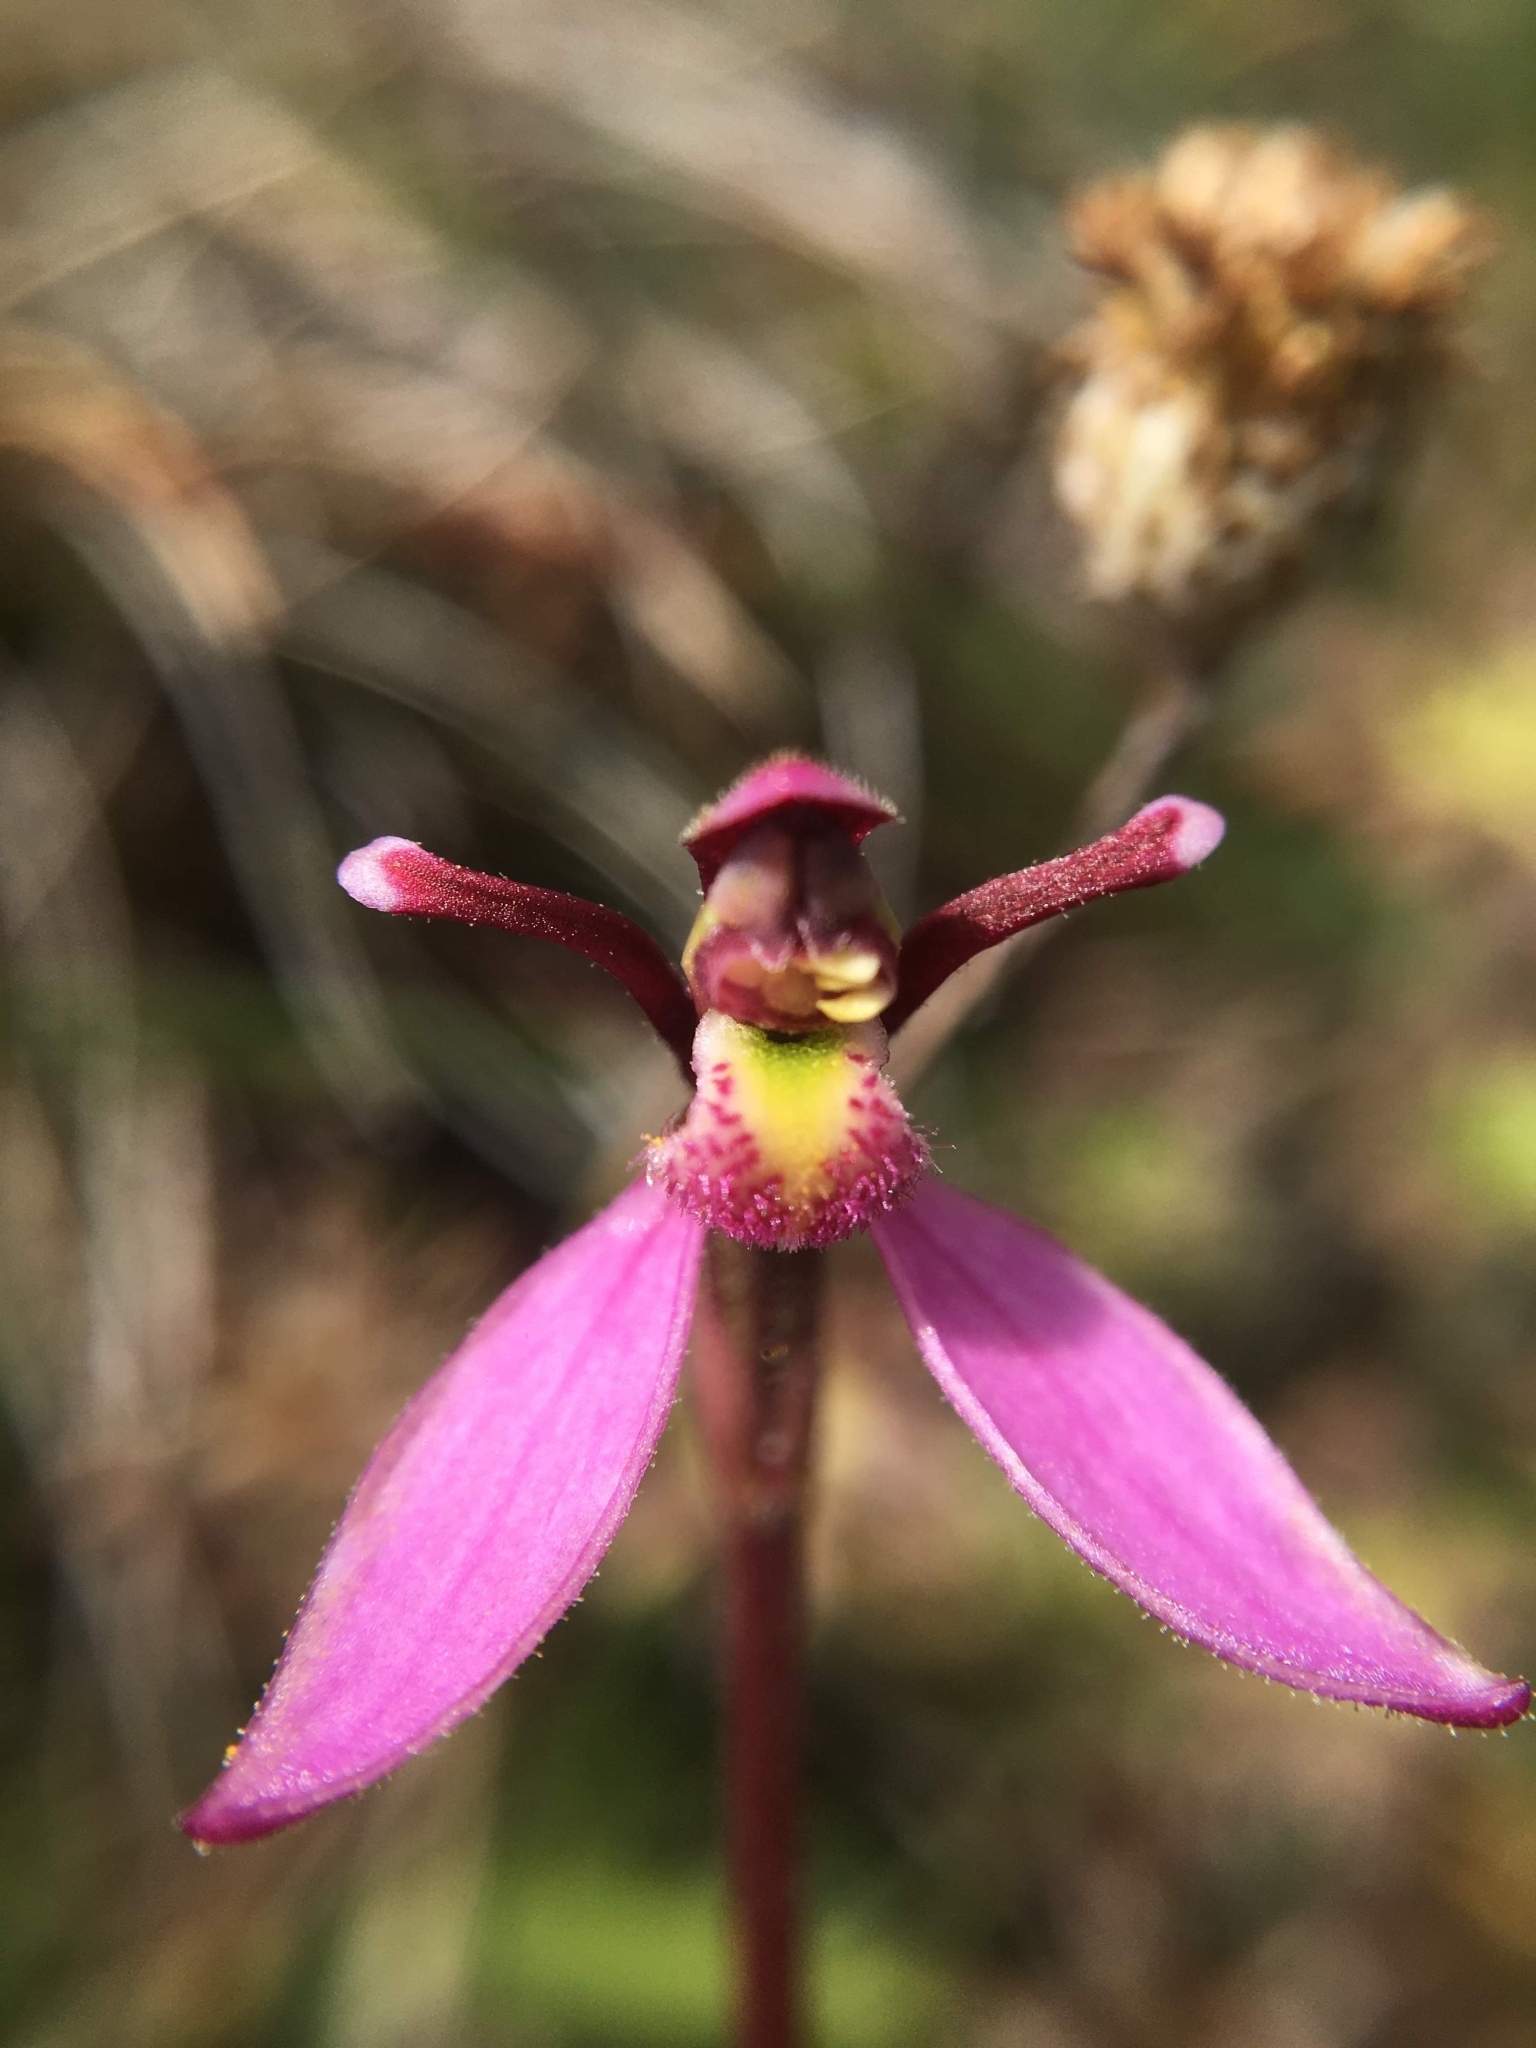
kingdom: Plantae
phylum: Tracheophyta
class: Liliopsida
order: Asparagales
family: Orchidaceae
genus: Eriochilus
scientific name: Eriochilus magenteus
